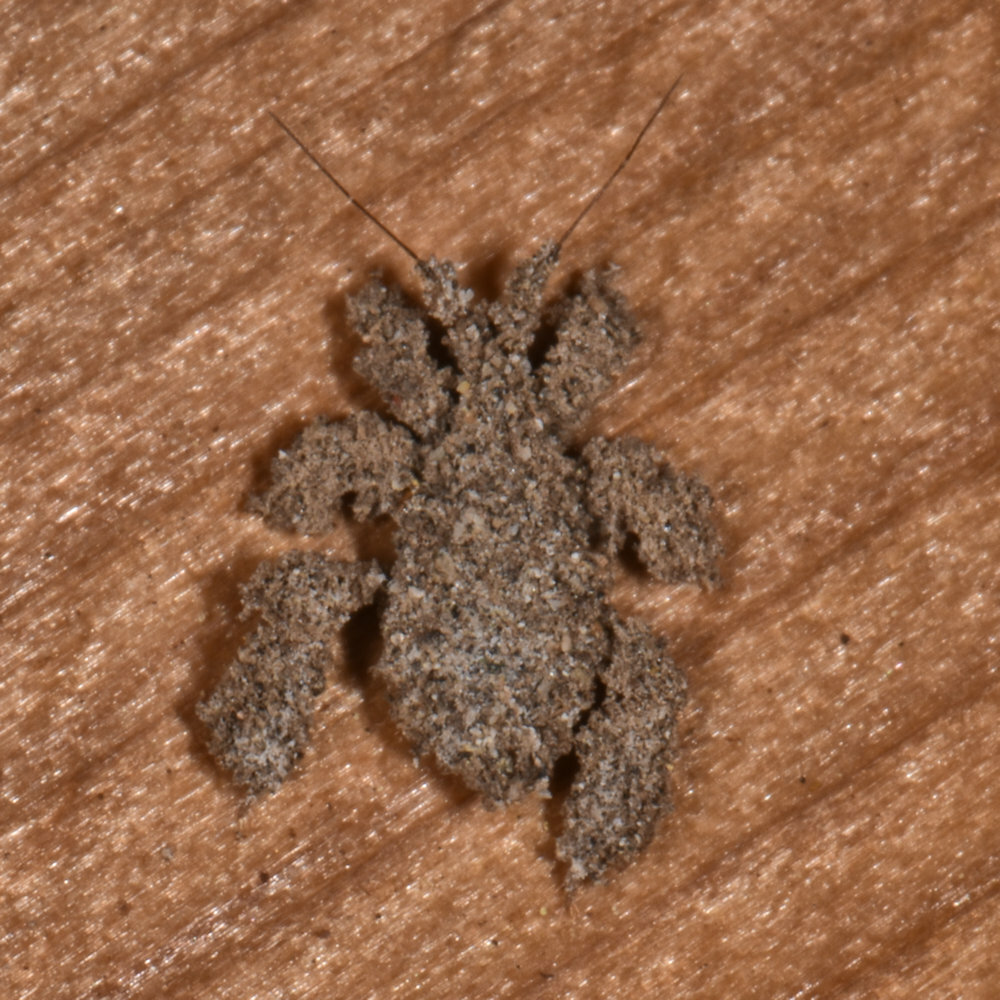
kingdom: Animalia
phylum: Arthropoda
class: Insecta
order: Hemiptera
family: Reduviidae
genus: Reduvius
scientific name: Reduvius personatus
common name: Masked hunter
